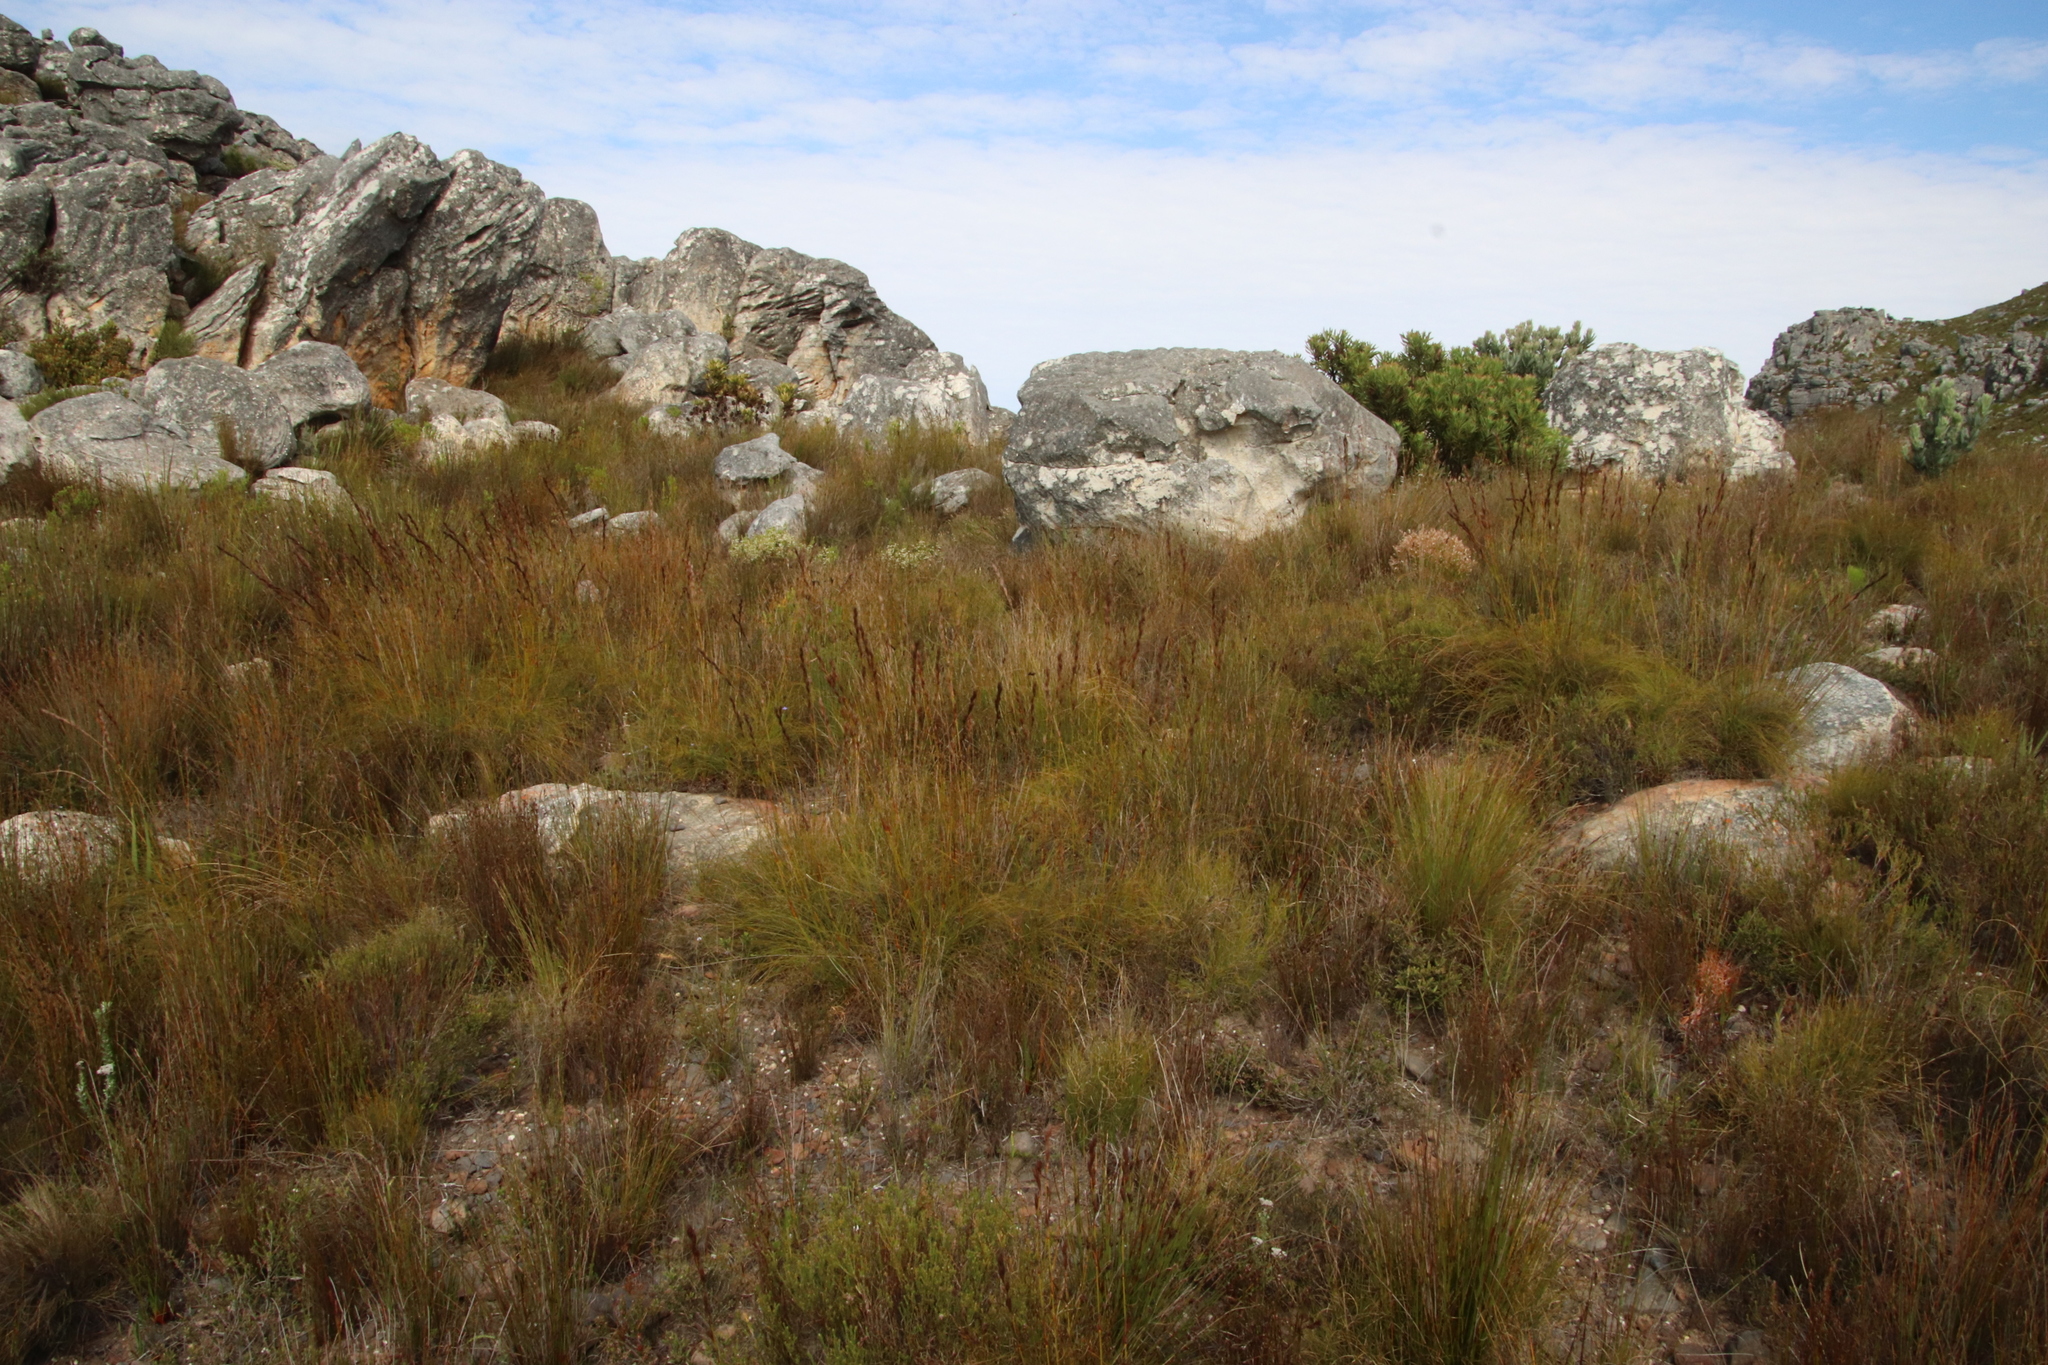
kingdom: Plantae
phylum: Tracheophyta
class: Liliopsida
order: Poales
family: Cyperaceae
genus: Tetraria
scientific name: Tetraria ustulata
